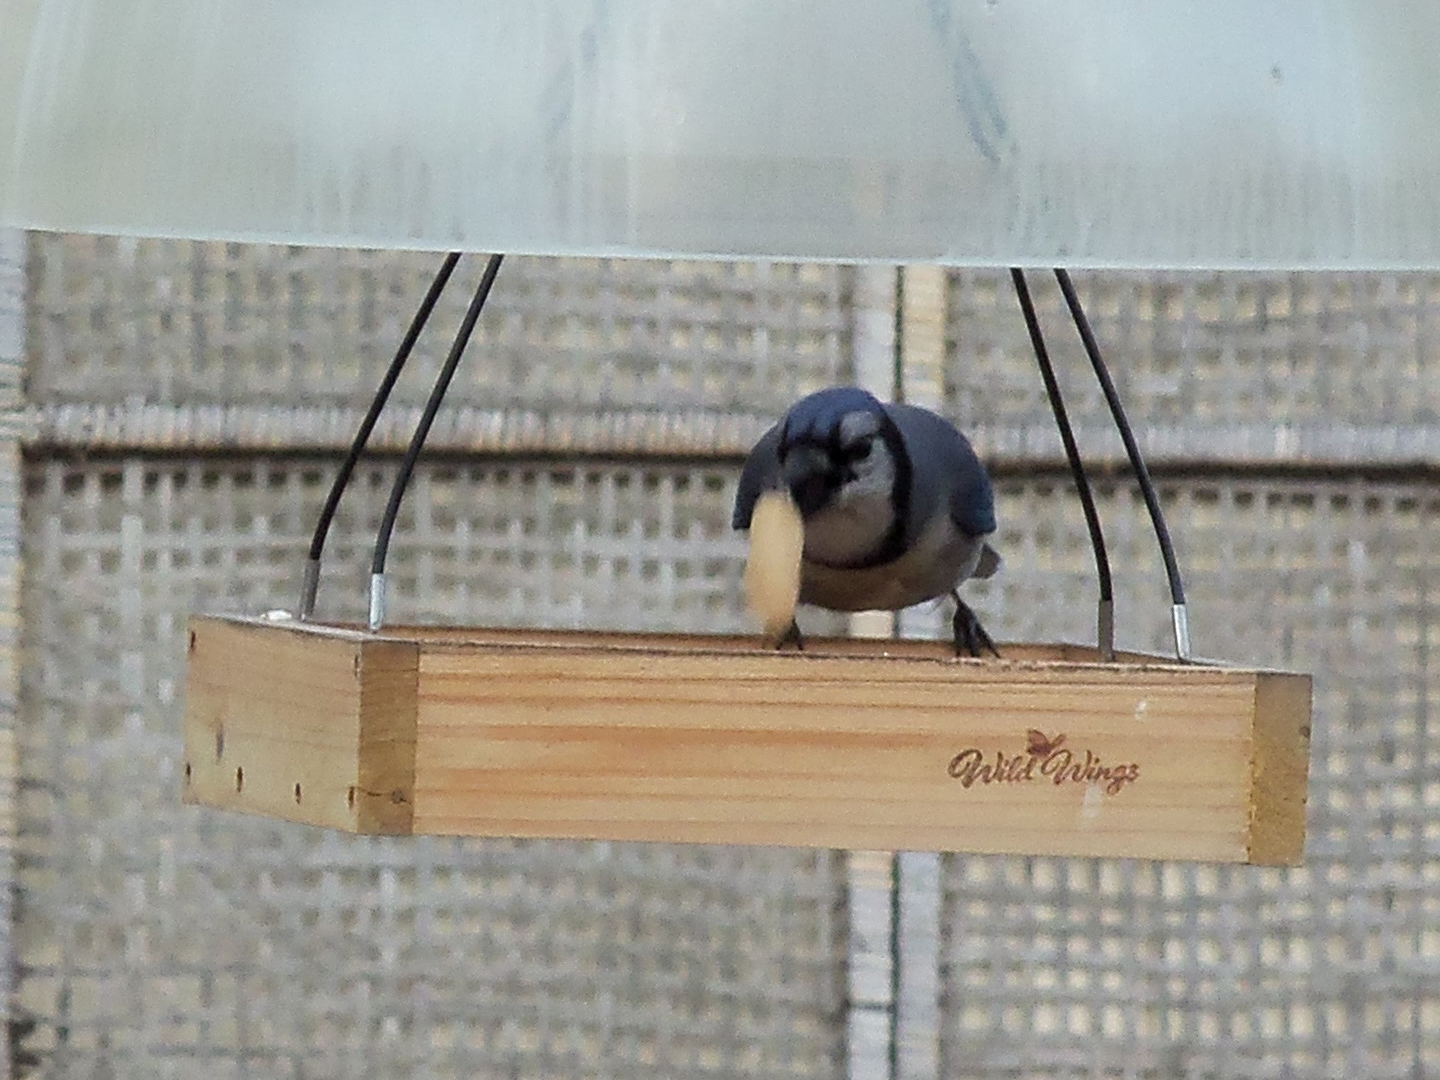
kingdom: Animalia
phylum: Chordata
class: Aves
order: Passeriformes
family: Corvidae
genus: Cyanocitta
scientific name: Cyanocitta cristata
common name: Blue jay
